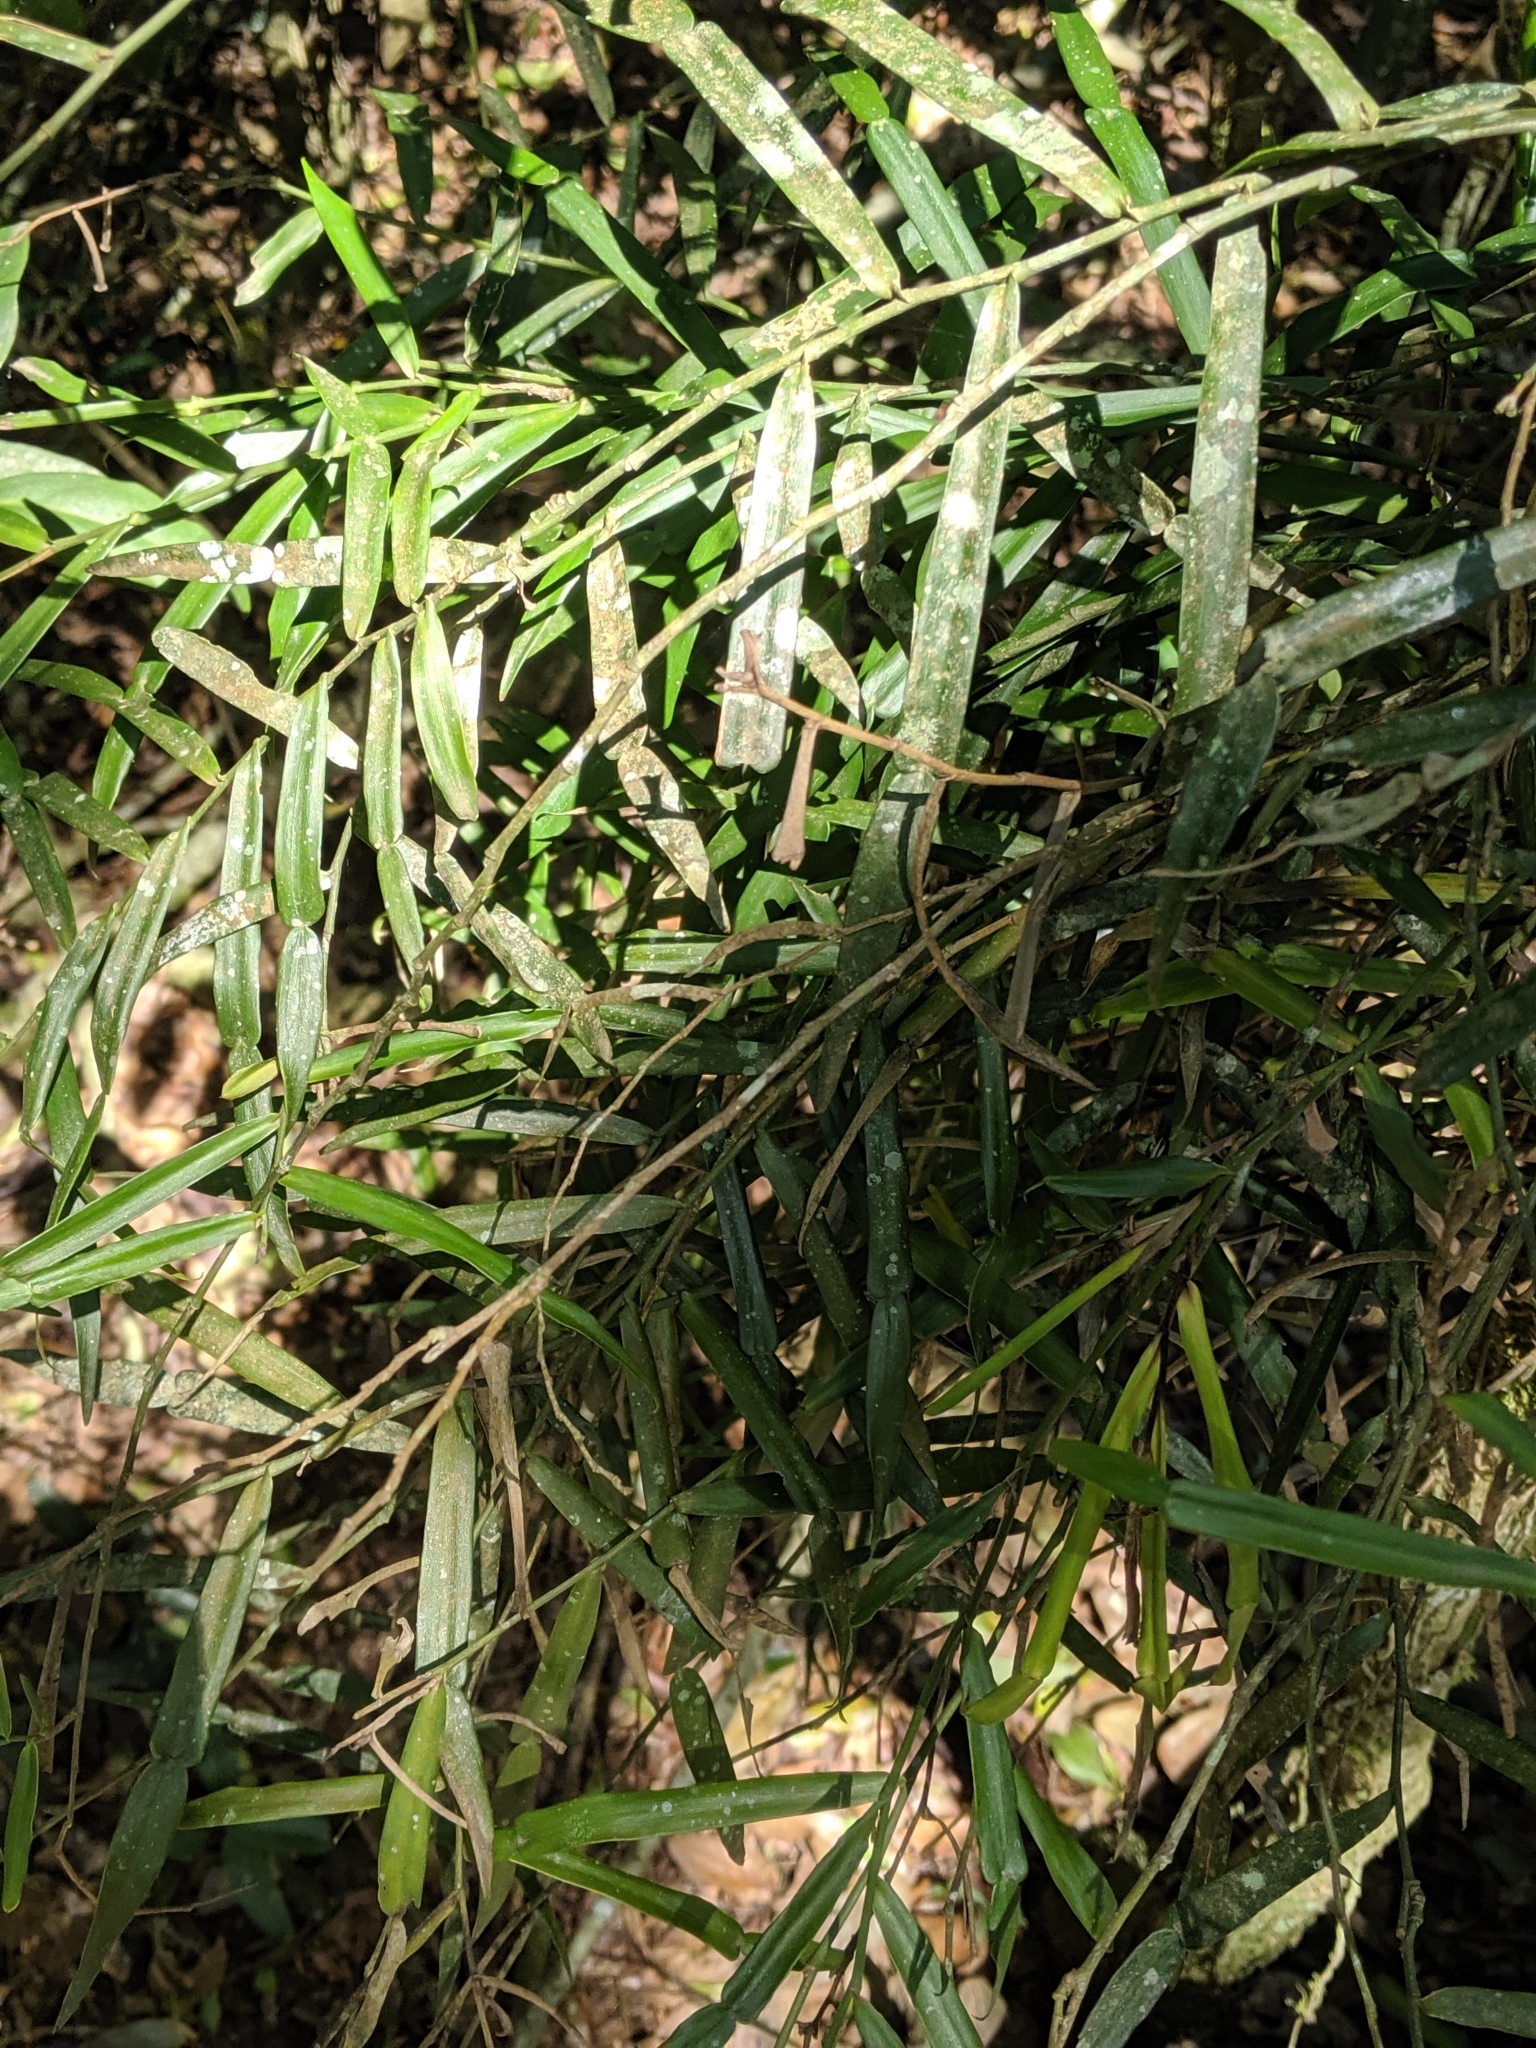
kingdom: Plantae
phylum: Tracheophyta
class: Liliopsida
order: Alismatales
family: Araceae
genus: Pothos
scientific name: Pothos longipes
